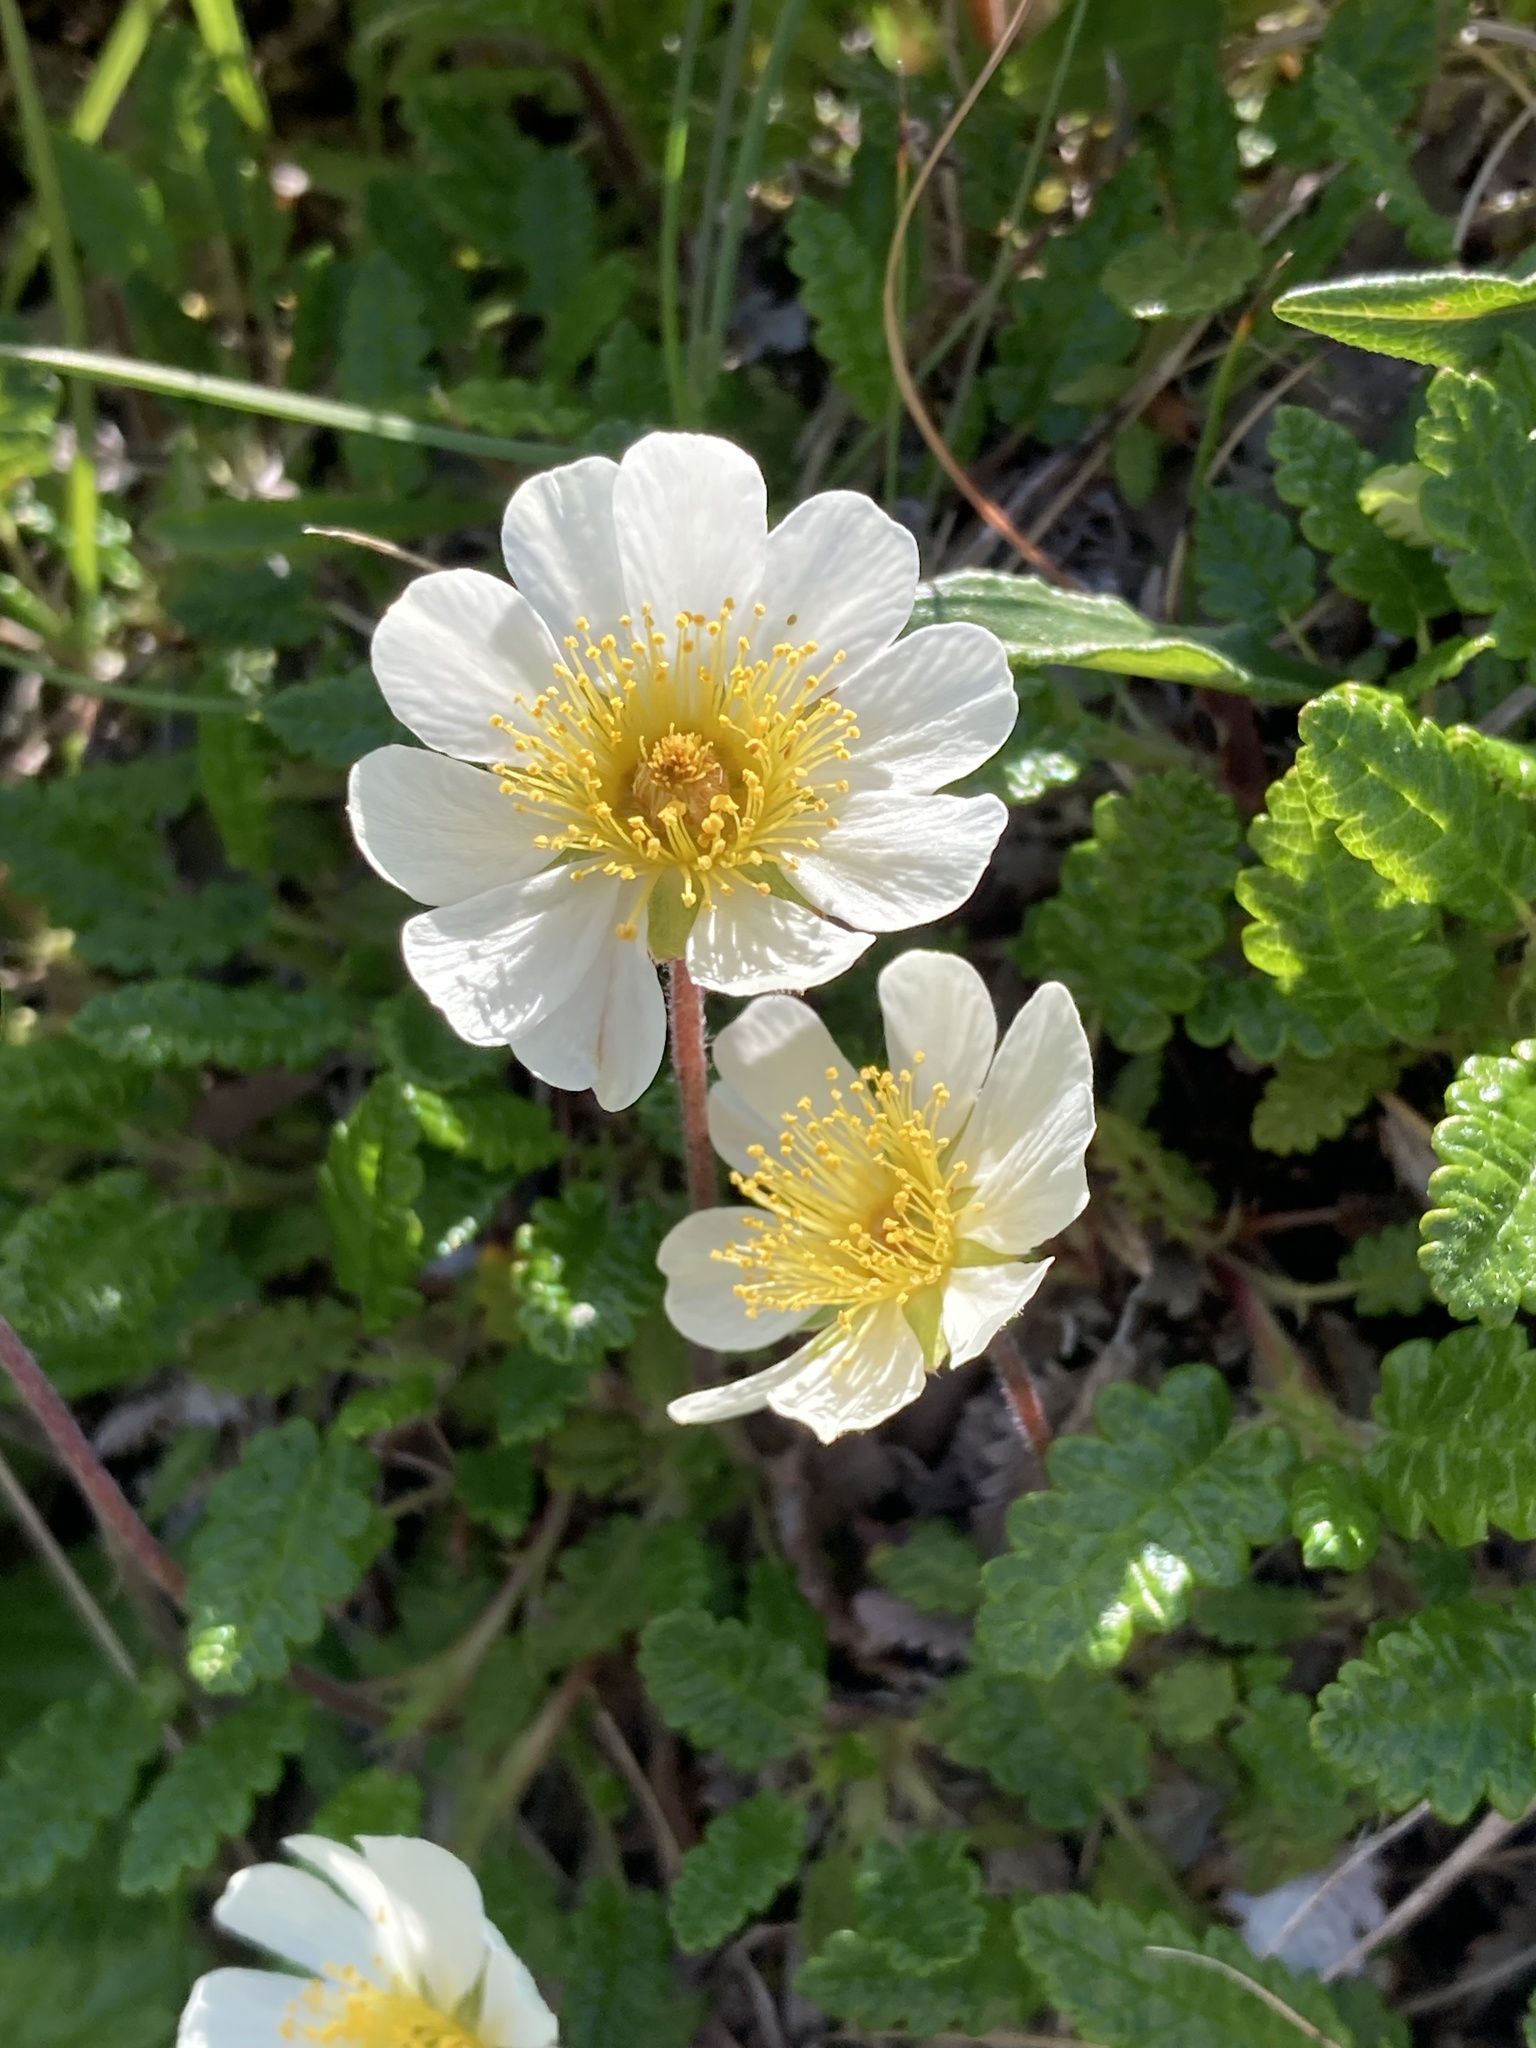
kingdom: Plantae
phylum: Tracheophyta
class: Magnoliopsida
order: Rosales
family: Rosaceae
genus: Dryas
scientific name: Dryas octopetala
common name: Eight-petal mountain-avens
